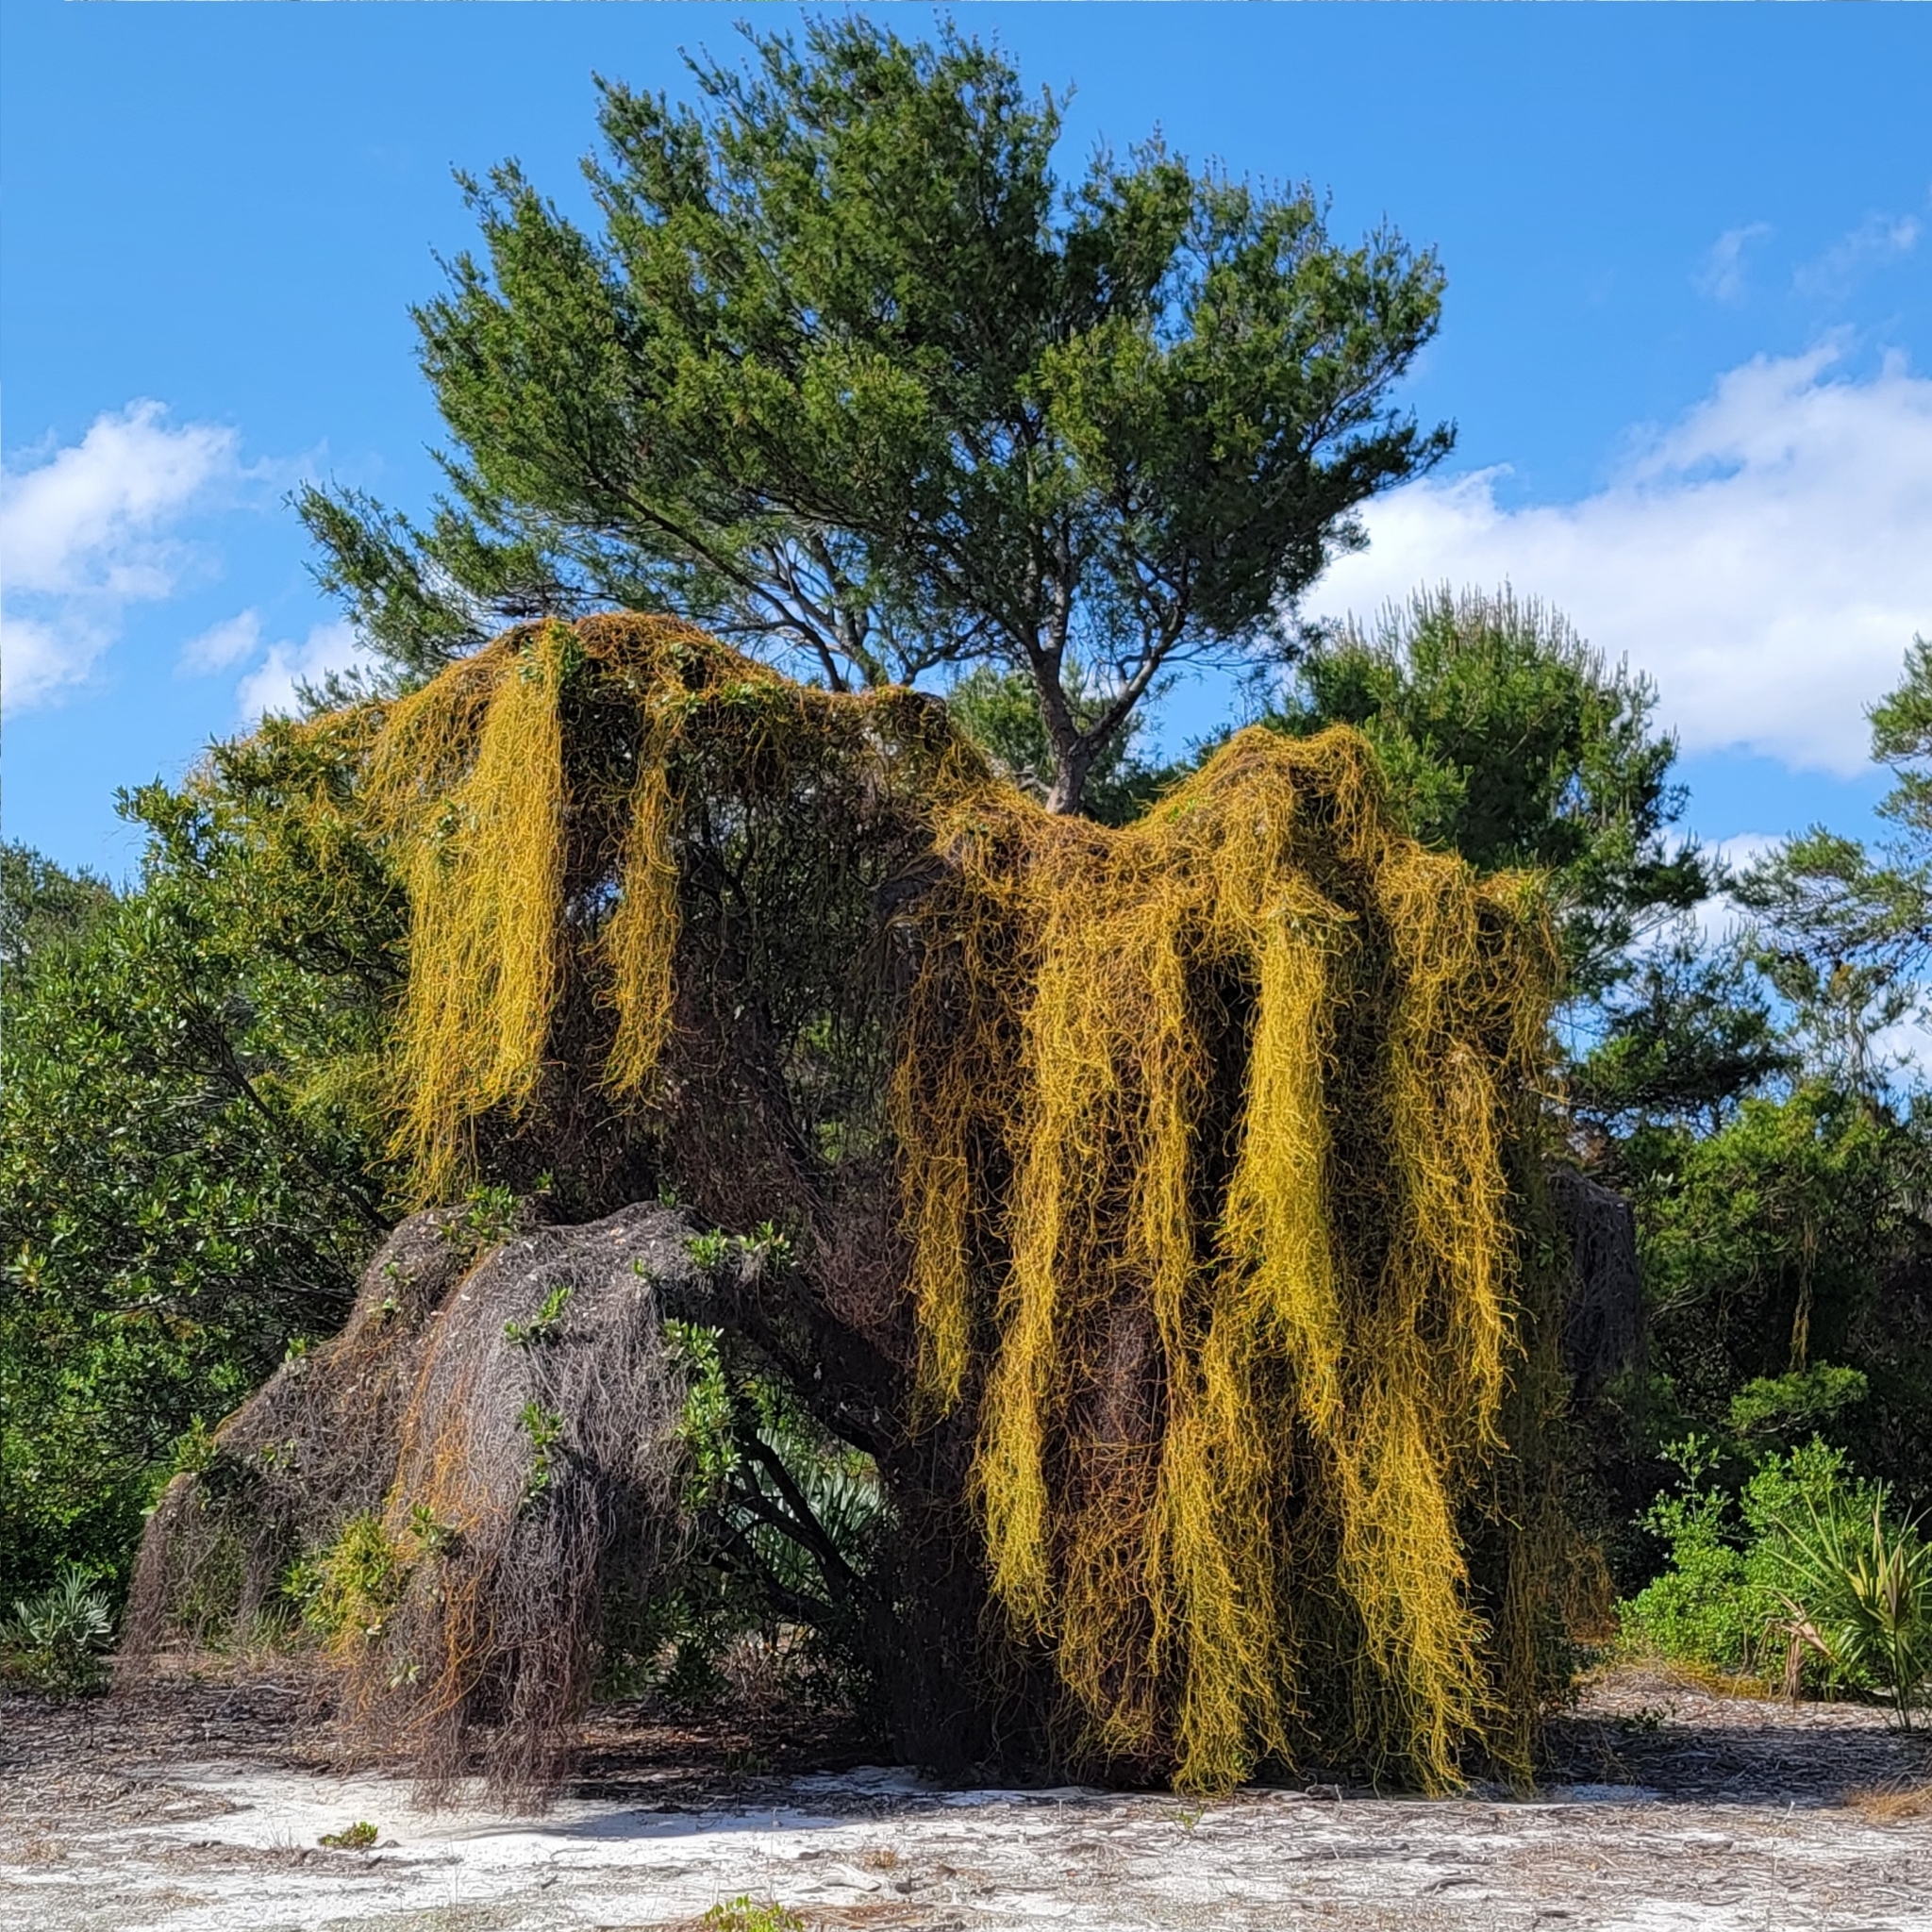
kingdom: Plantae
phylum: Tracheophyta
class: Magnoliopsida
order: Laurales
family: Lauraceae
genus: Cassytha
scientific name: Cassytha filiformis
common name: Dodder-laurel
